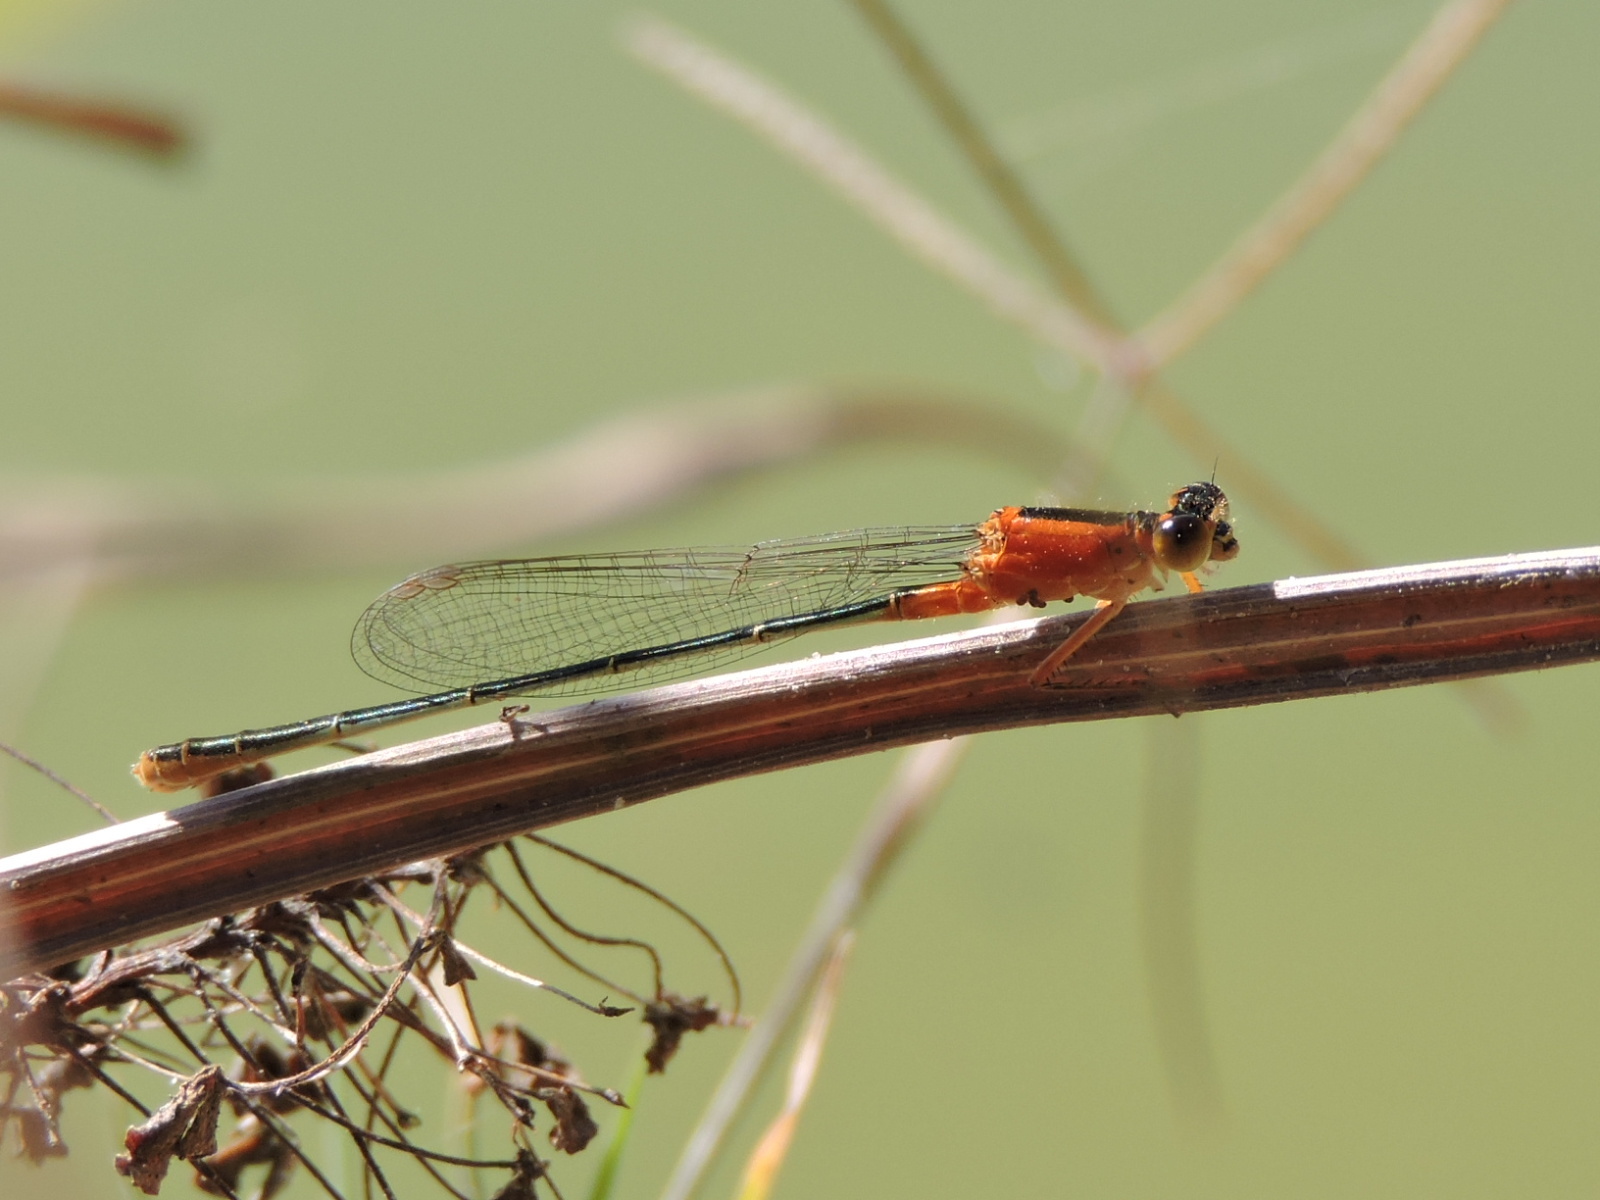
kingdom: Animalia
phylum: Arthropoda
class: Insecta
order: Odonata
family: Coenagrionidae
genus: Ischnura
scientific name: Ischnura ramburii
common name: Rambur's forktail
